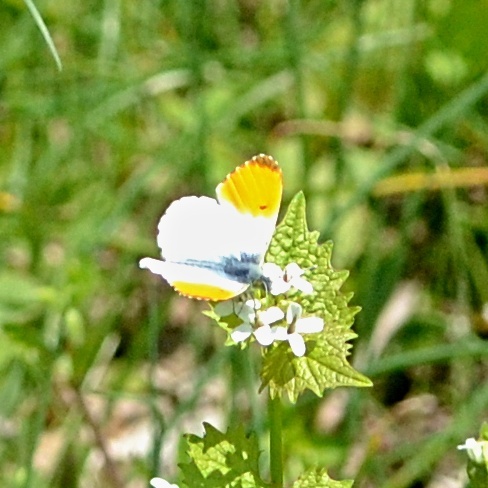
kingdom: Animalia
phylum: Arthropoda
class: Insecta
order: Lepidoptera
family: Pieridae
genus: Anthocharis
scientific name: Anthocharis cardamines
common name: Orange-tip
